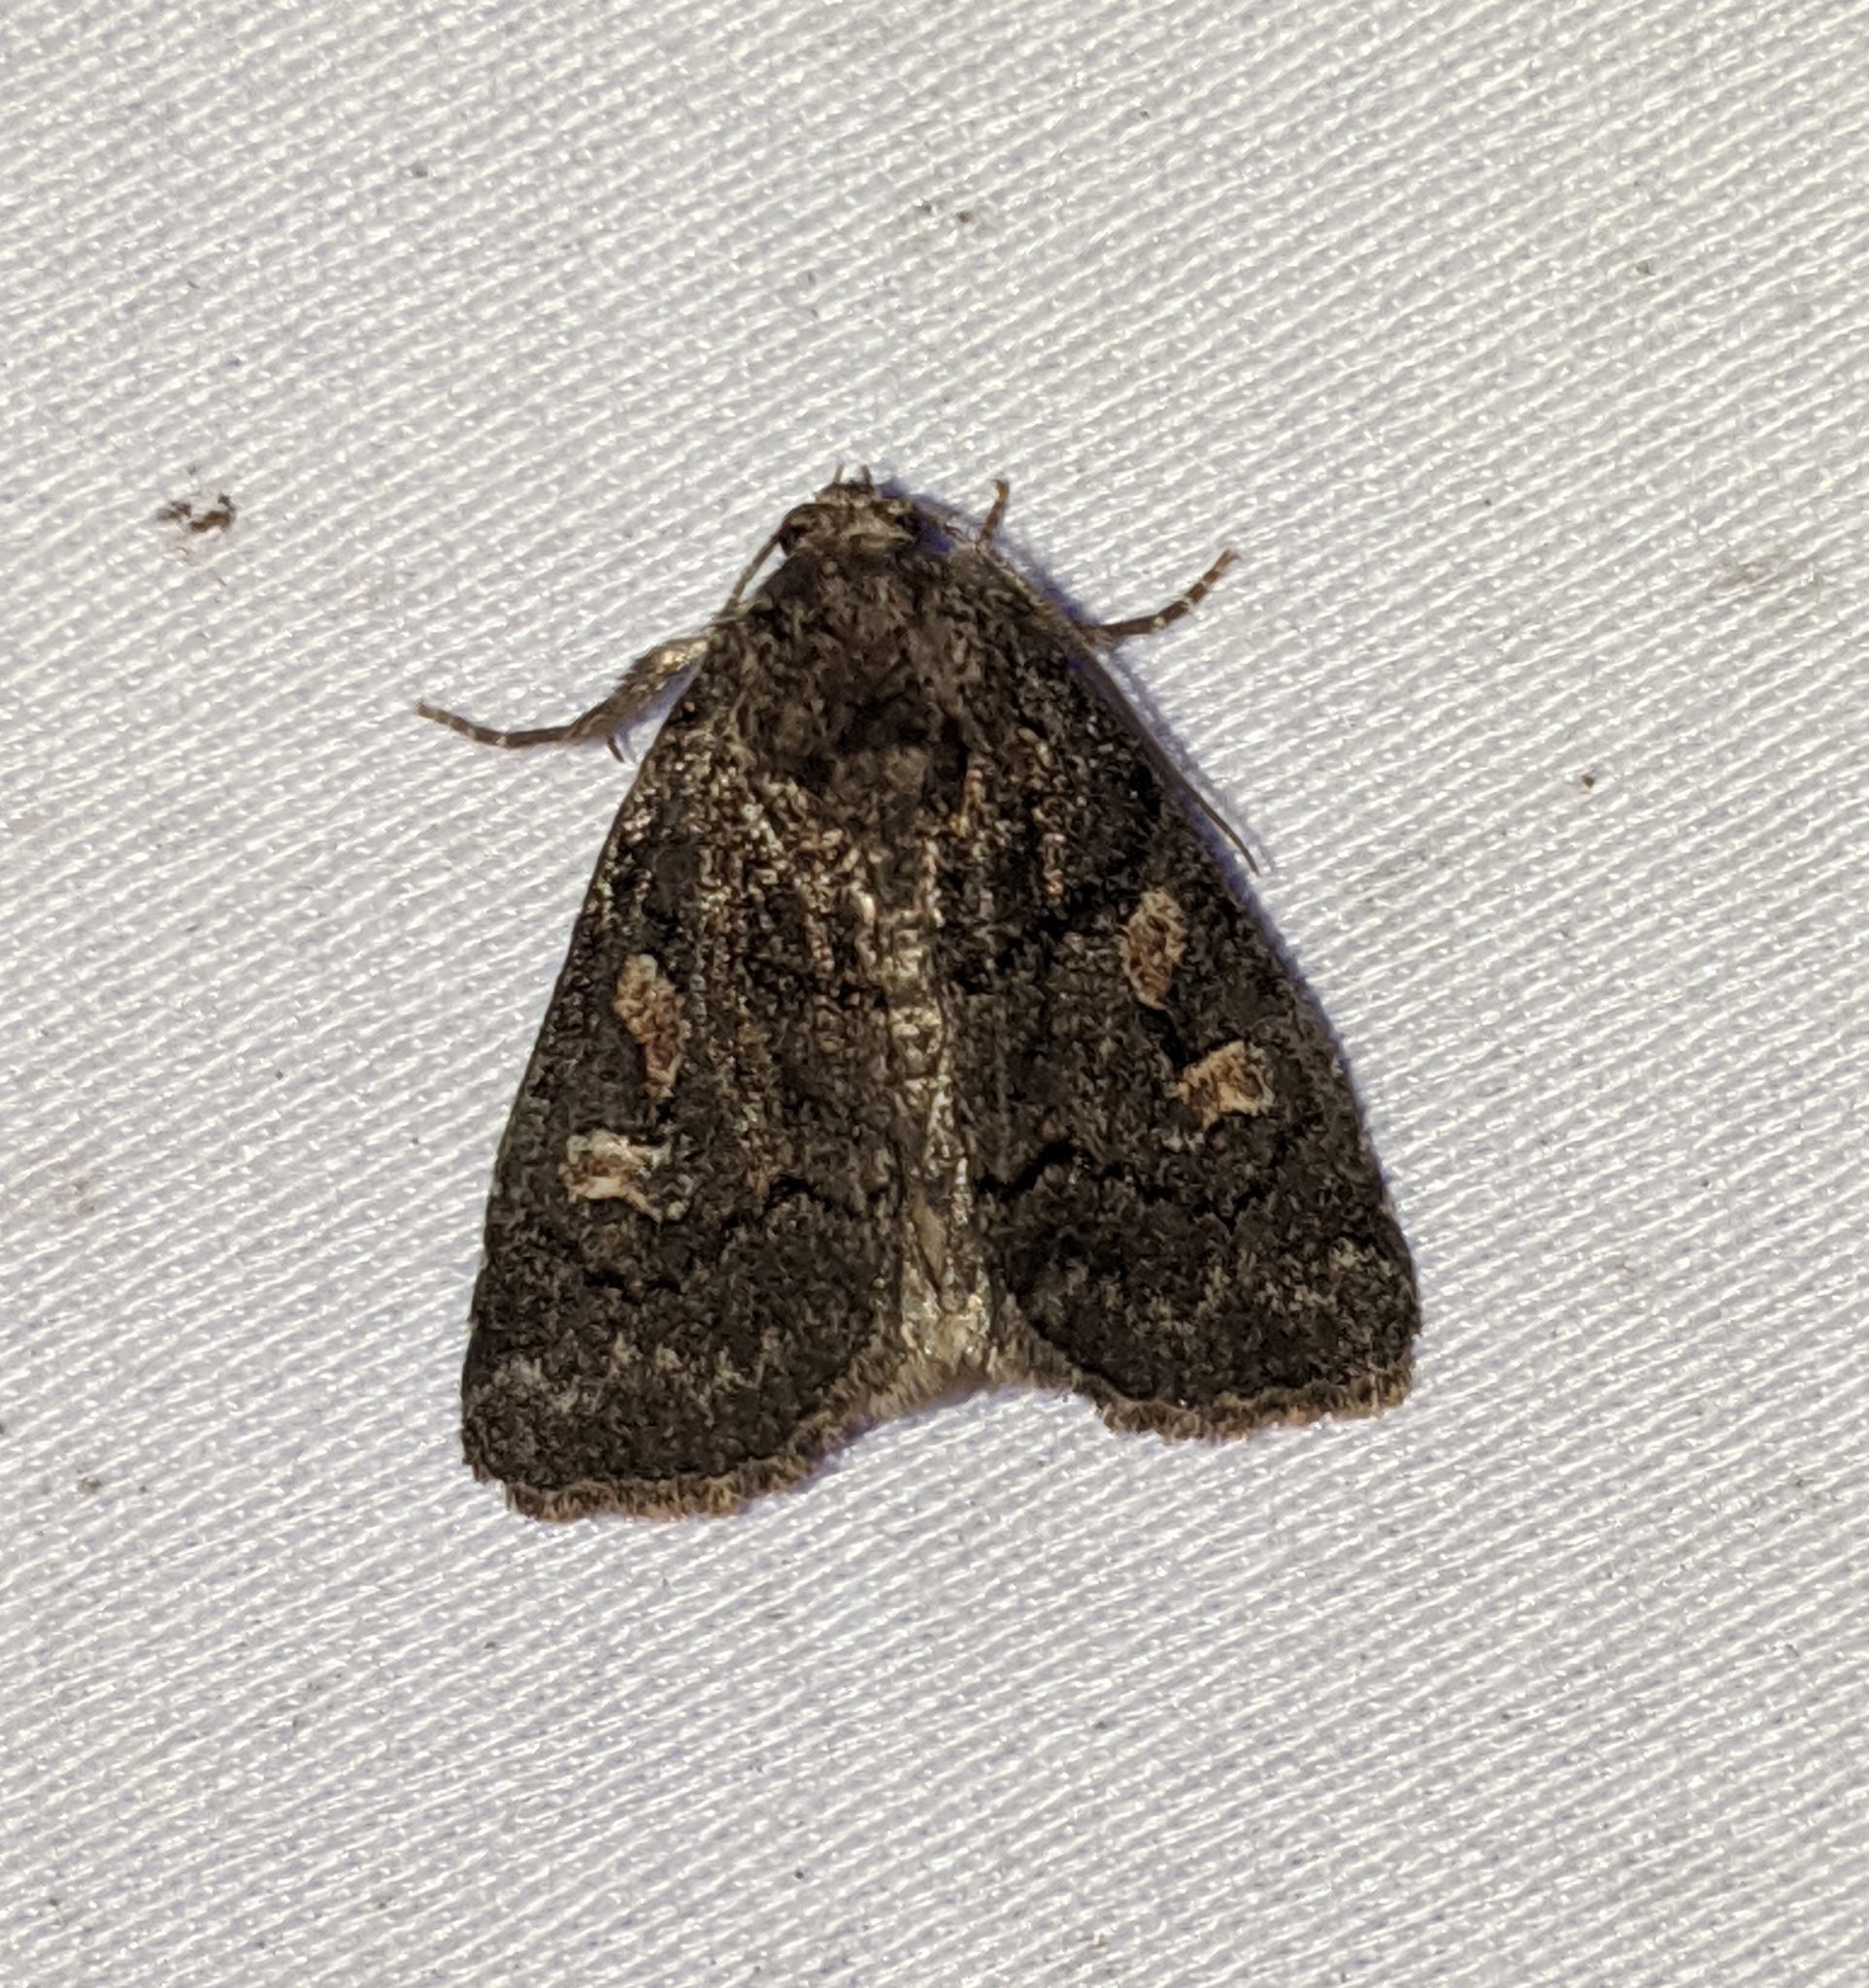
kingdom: Animalia
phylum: Arthropoda
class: Insecta
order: Lepidoptera
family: Noctuidae
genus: Cosmia
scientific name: Cosmia praeacuta
